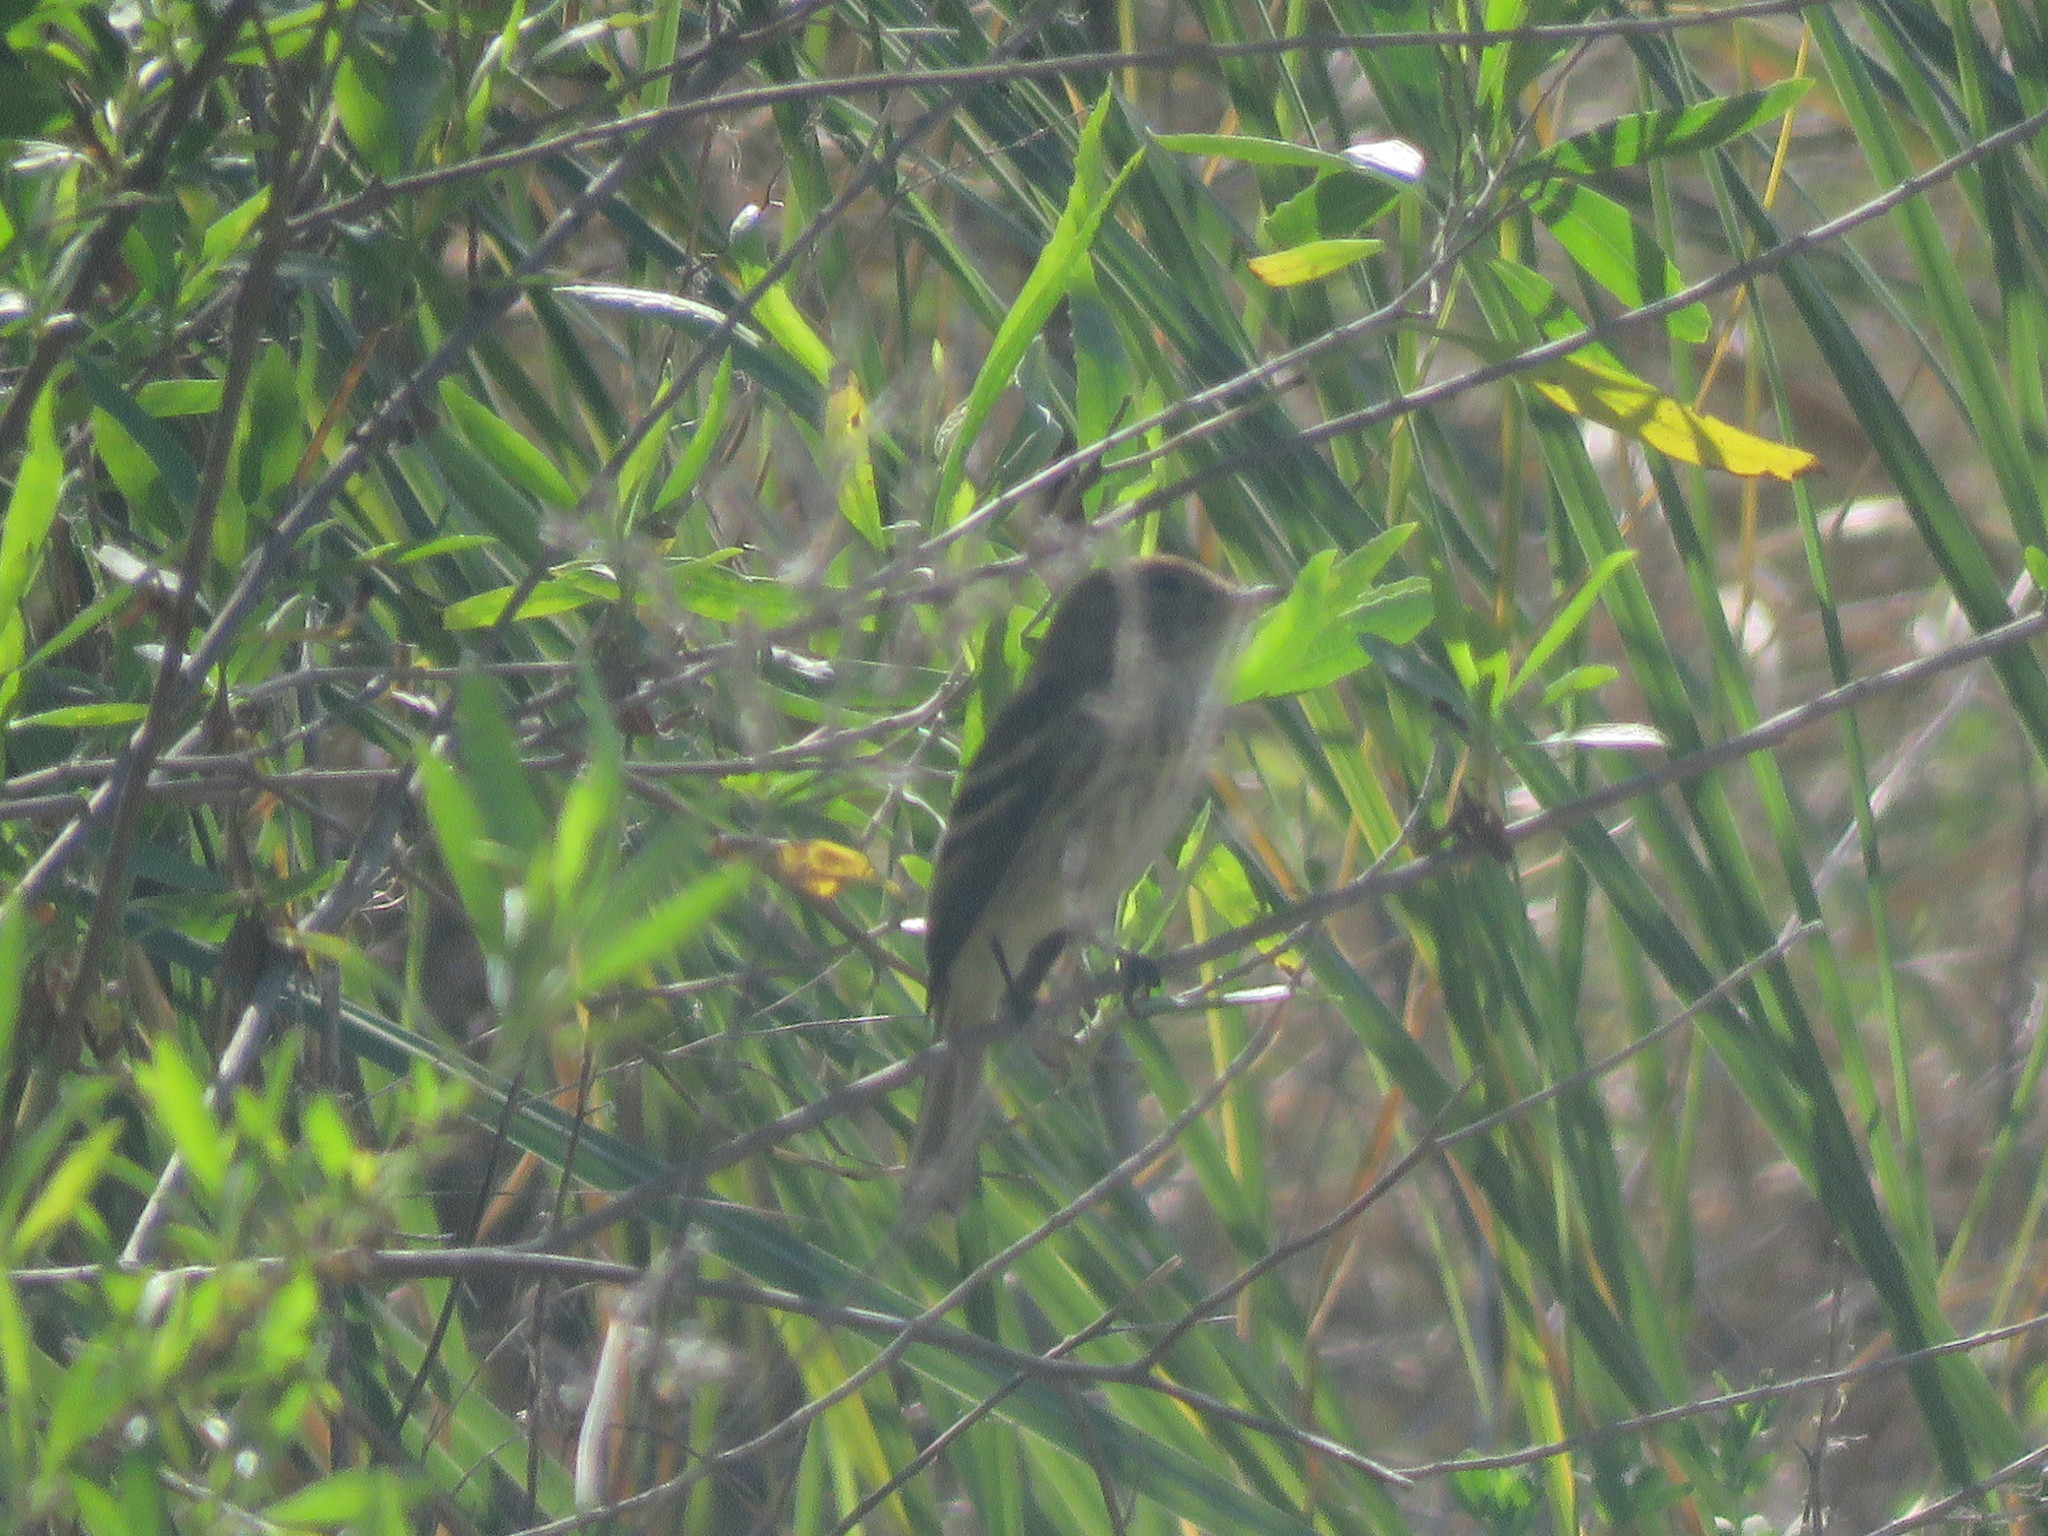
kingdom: Animalia
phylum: Chordata
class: Aves
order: Passeriformes
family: Tyrannidae
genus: Myiophobus
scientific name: Myiophobus fasciatus
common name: Bran-colored flycatcher
